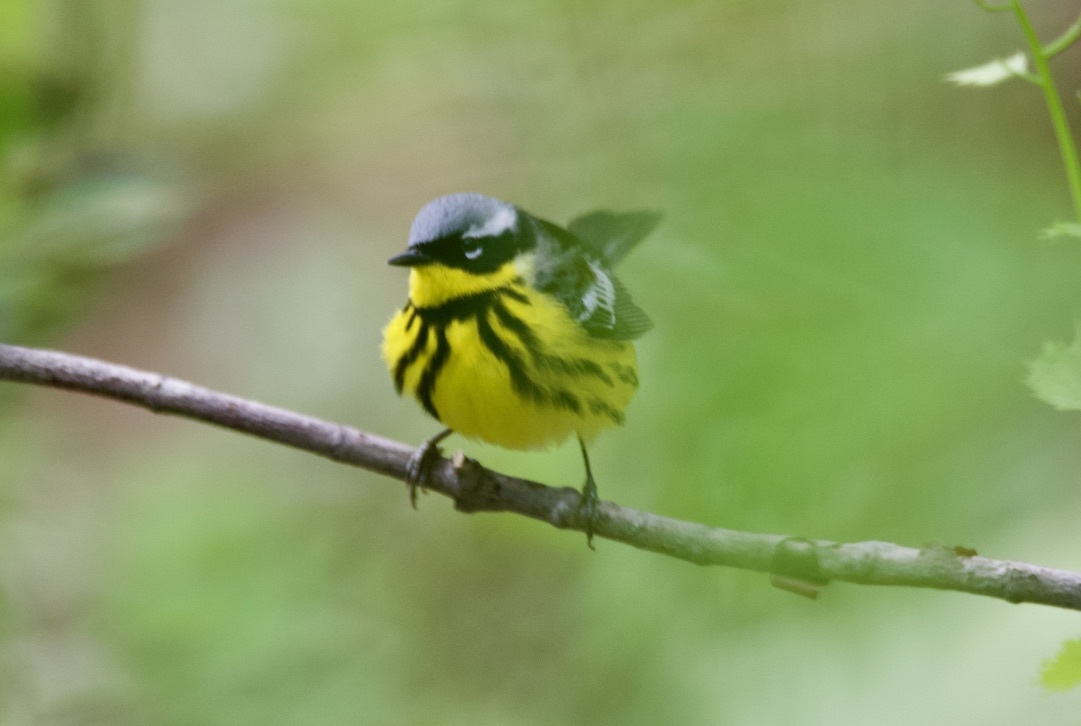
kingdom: Animalia
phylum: Chordata
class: Aves
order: Passeriformes
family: Parulidae
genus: Setophaga
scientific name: Setophaga magnolia
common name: Magnolia warbler
